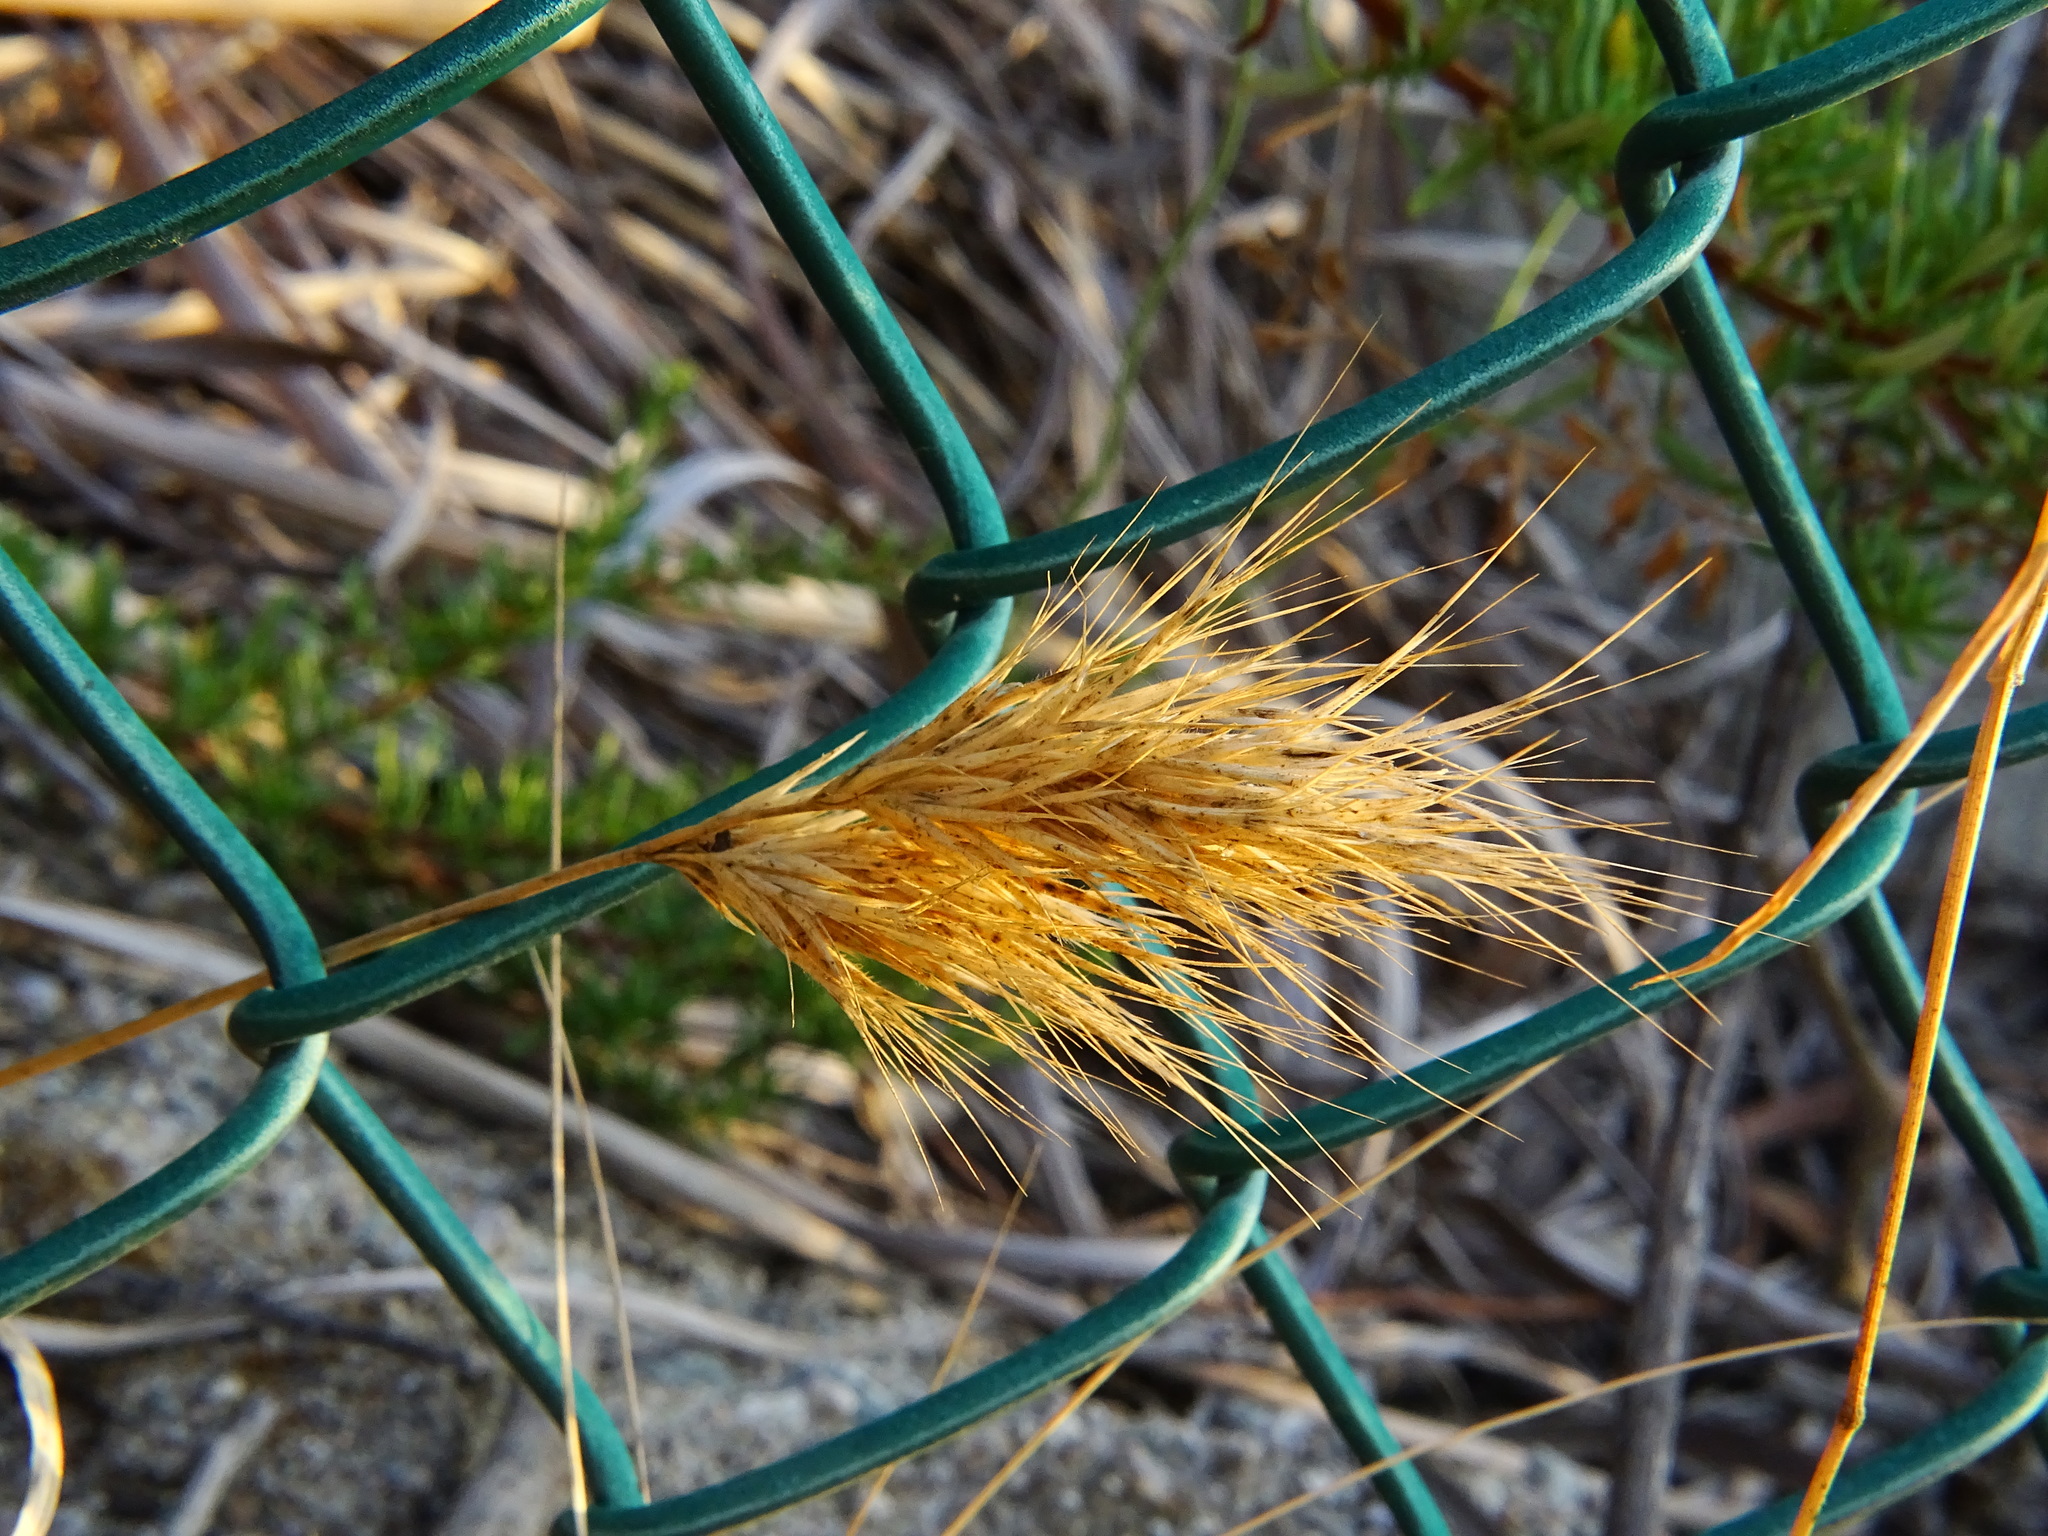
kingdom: Plantae
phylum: Tracheophyta
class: Liliopsida
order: Poales
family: Poaceae
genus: Bromus
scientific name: Bromus madritensis
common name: Compact brome
